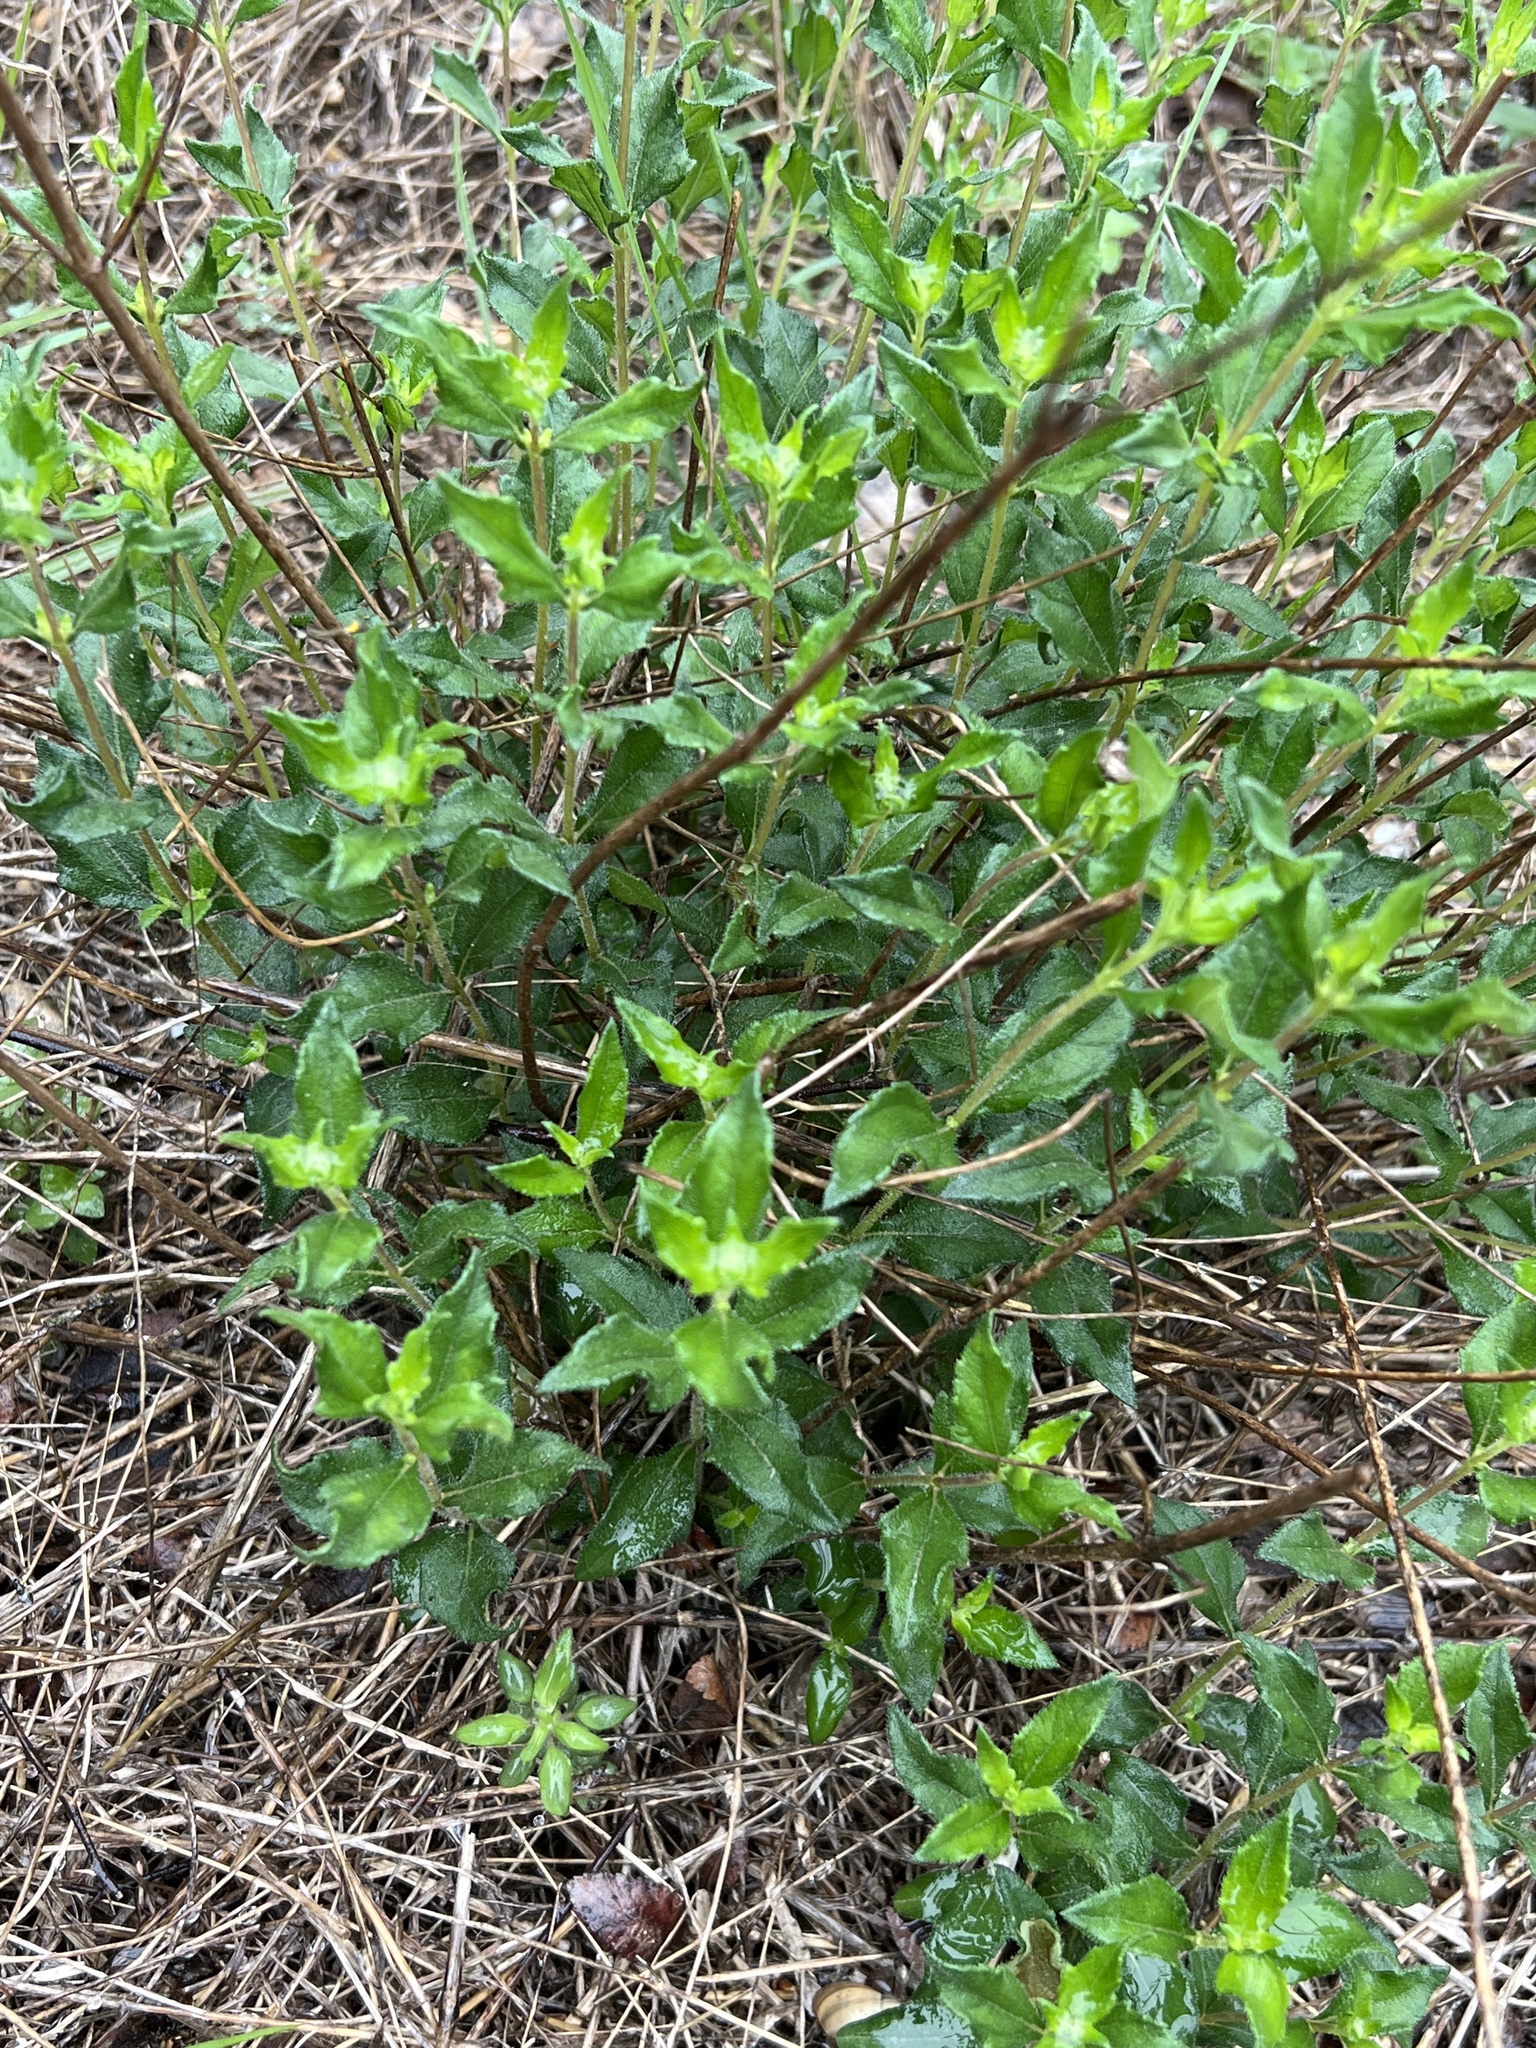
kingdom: Plantae
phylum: Tracheophyta
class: Magnoliopsida
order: Asterales
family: Asteraceae
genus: Wedelia
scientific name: Wedelia acapulcensis
